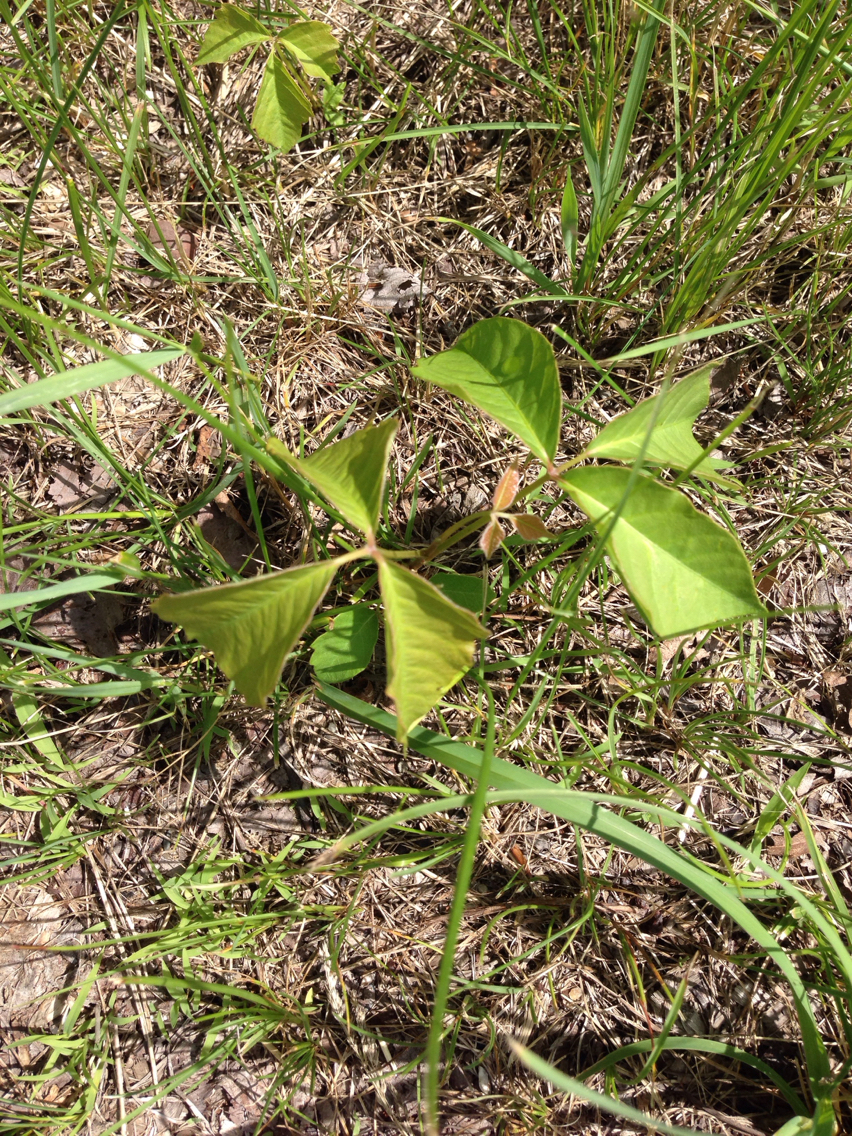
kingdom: Plantae
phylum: Tracheophyta
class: Magnoliopsida
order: Sapindales
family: Anacardiaceae
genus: Toxicodendron
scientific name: Toxicodendron radicans
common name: Poison ivy
